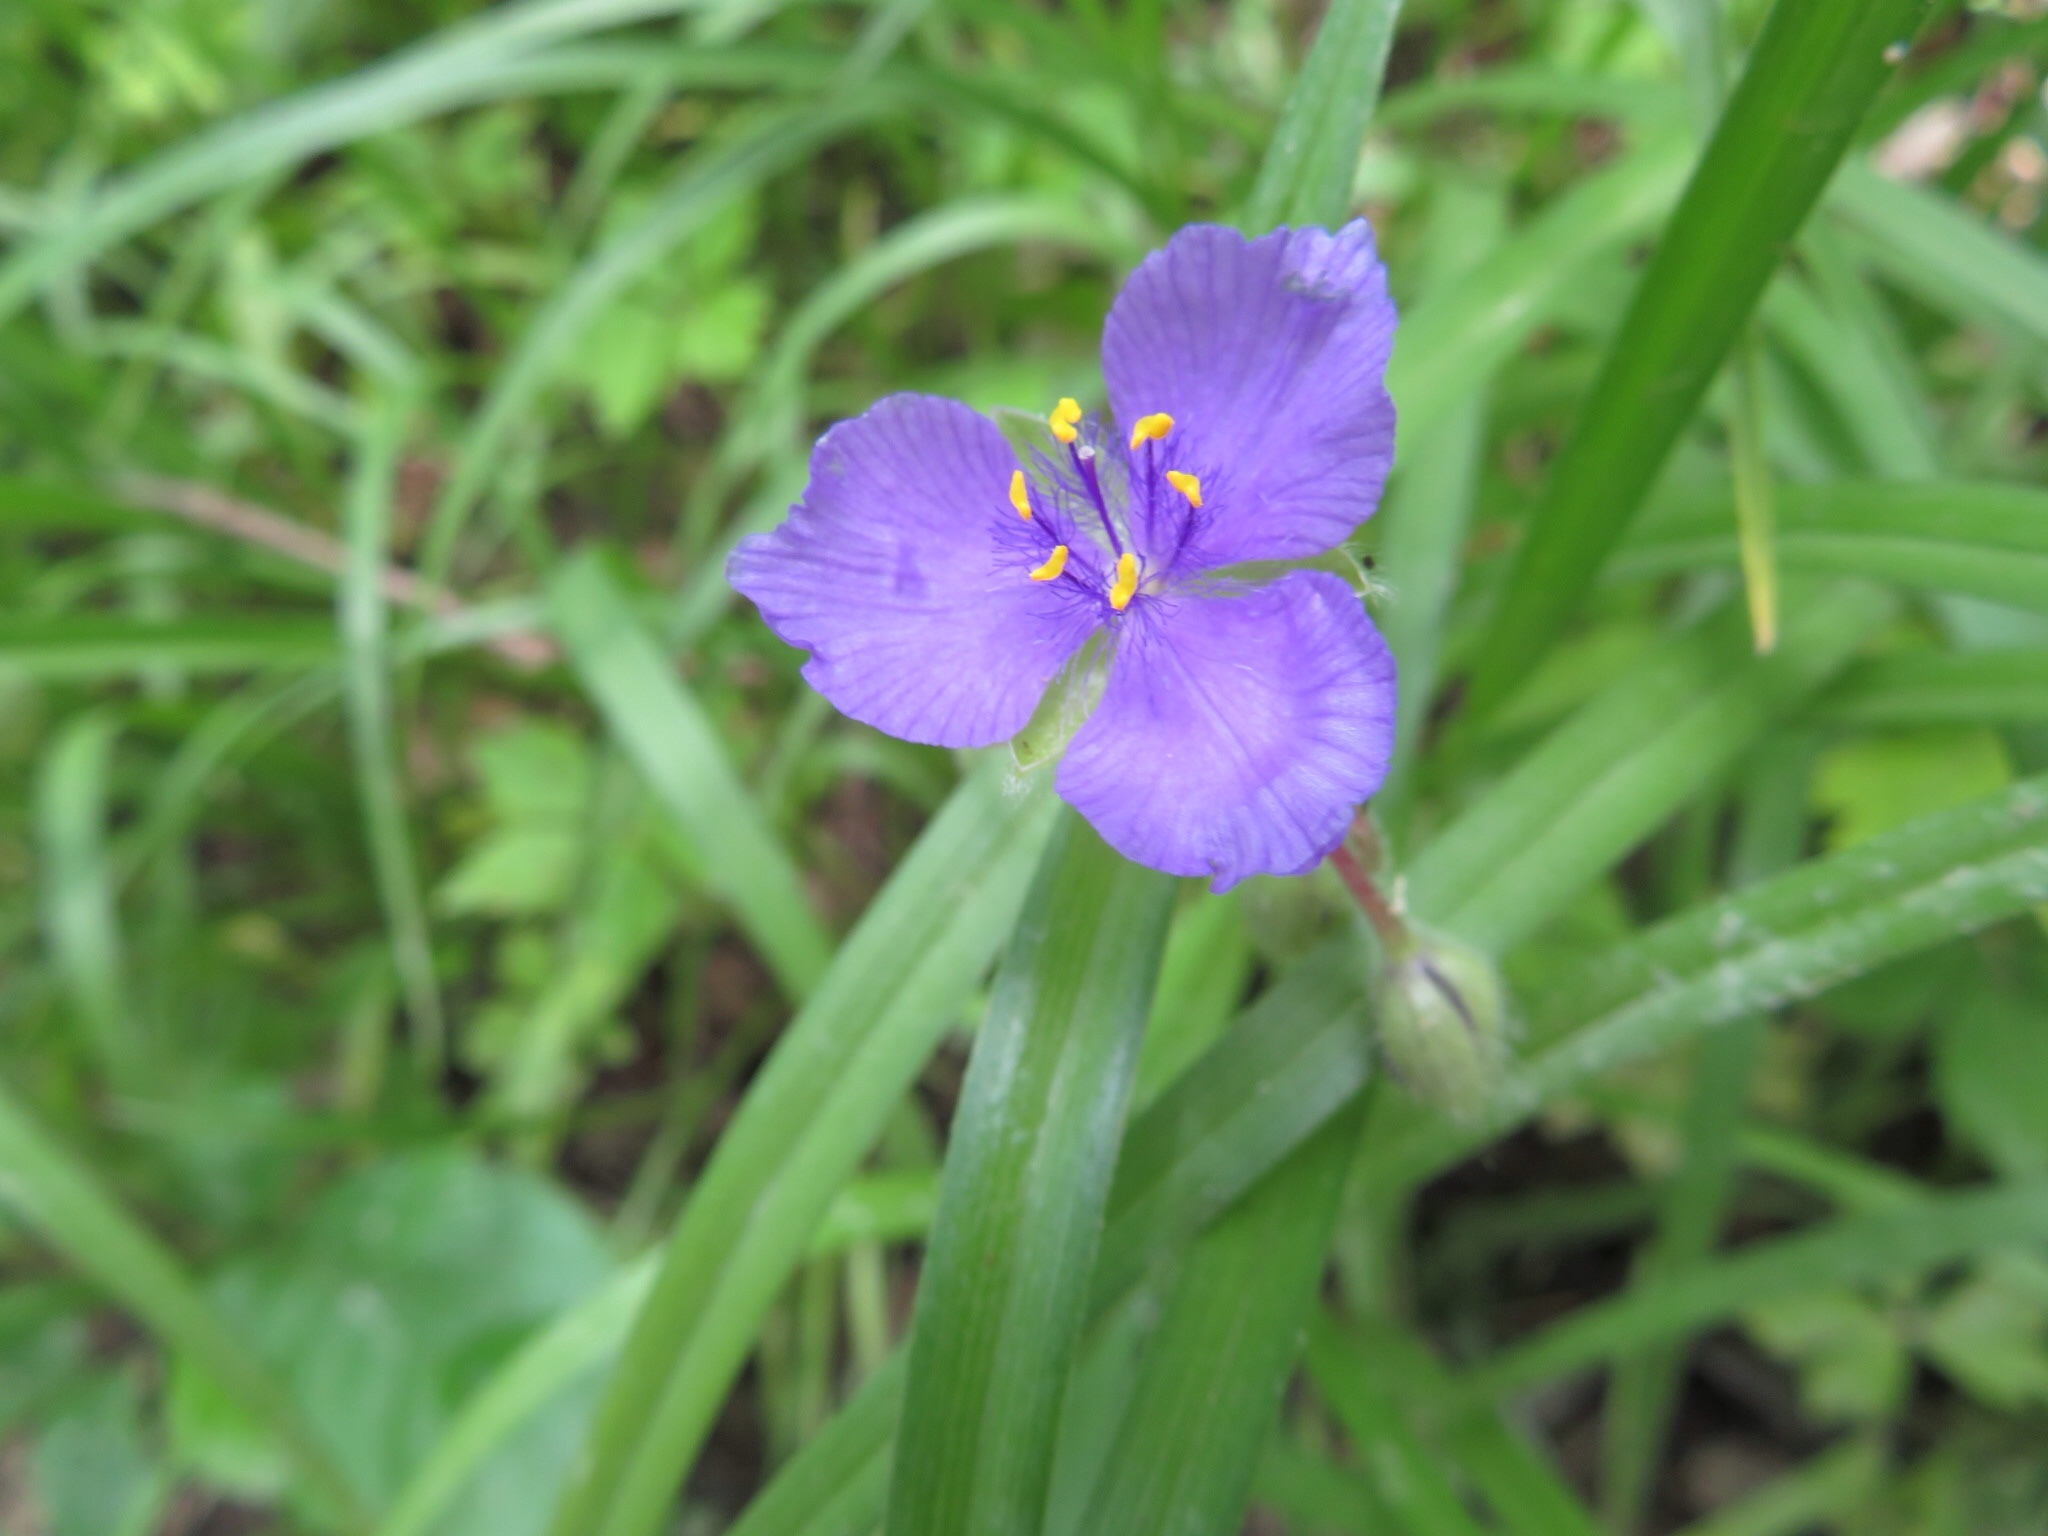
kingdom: Plantae
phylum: Tracheophyta
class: Liliopsida
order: Commelinales
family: Commelinaceae
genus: Tradescantia
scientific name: Tradescantia bracteata
